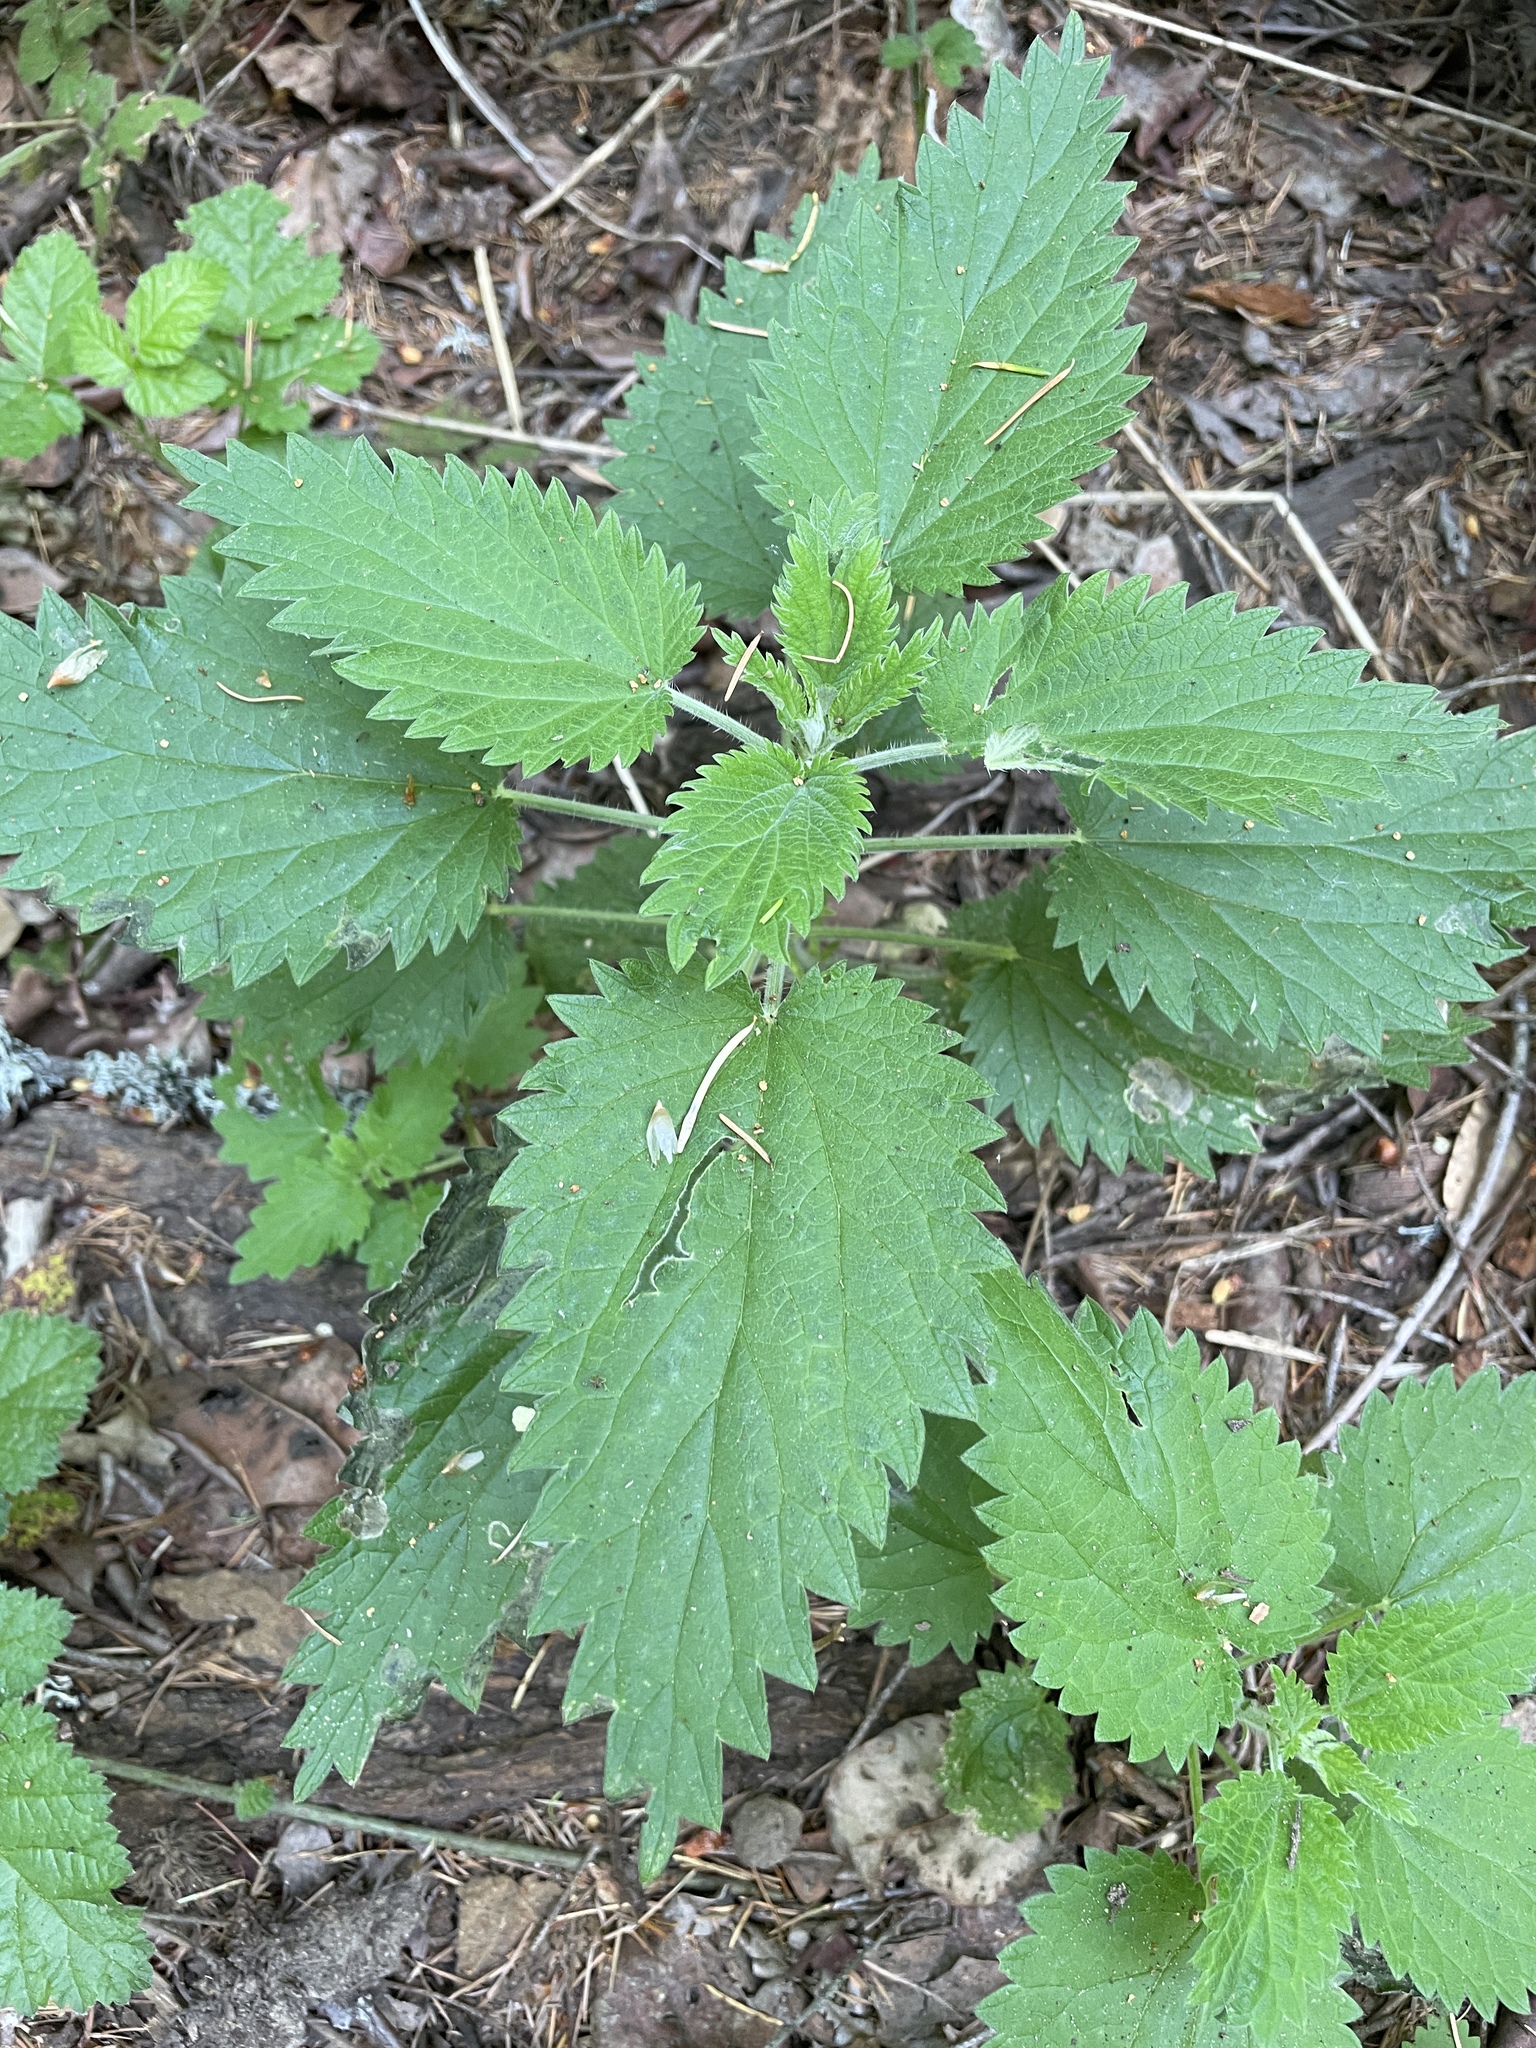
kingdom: Plantae
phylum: Tracheophyta
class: Magnoliopsida
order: Rosales
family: Urticaceae
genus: Urtica
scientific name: Urtica dioica
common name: Common nettle
